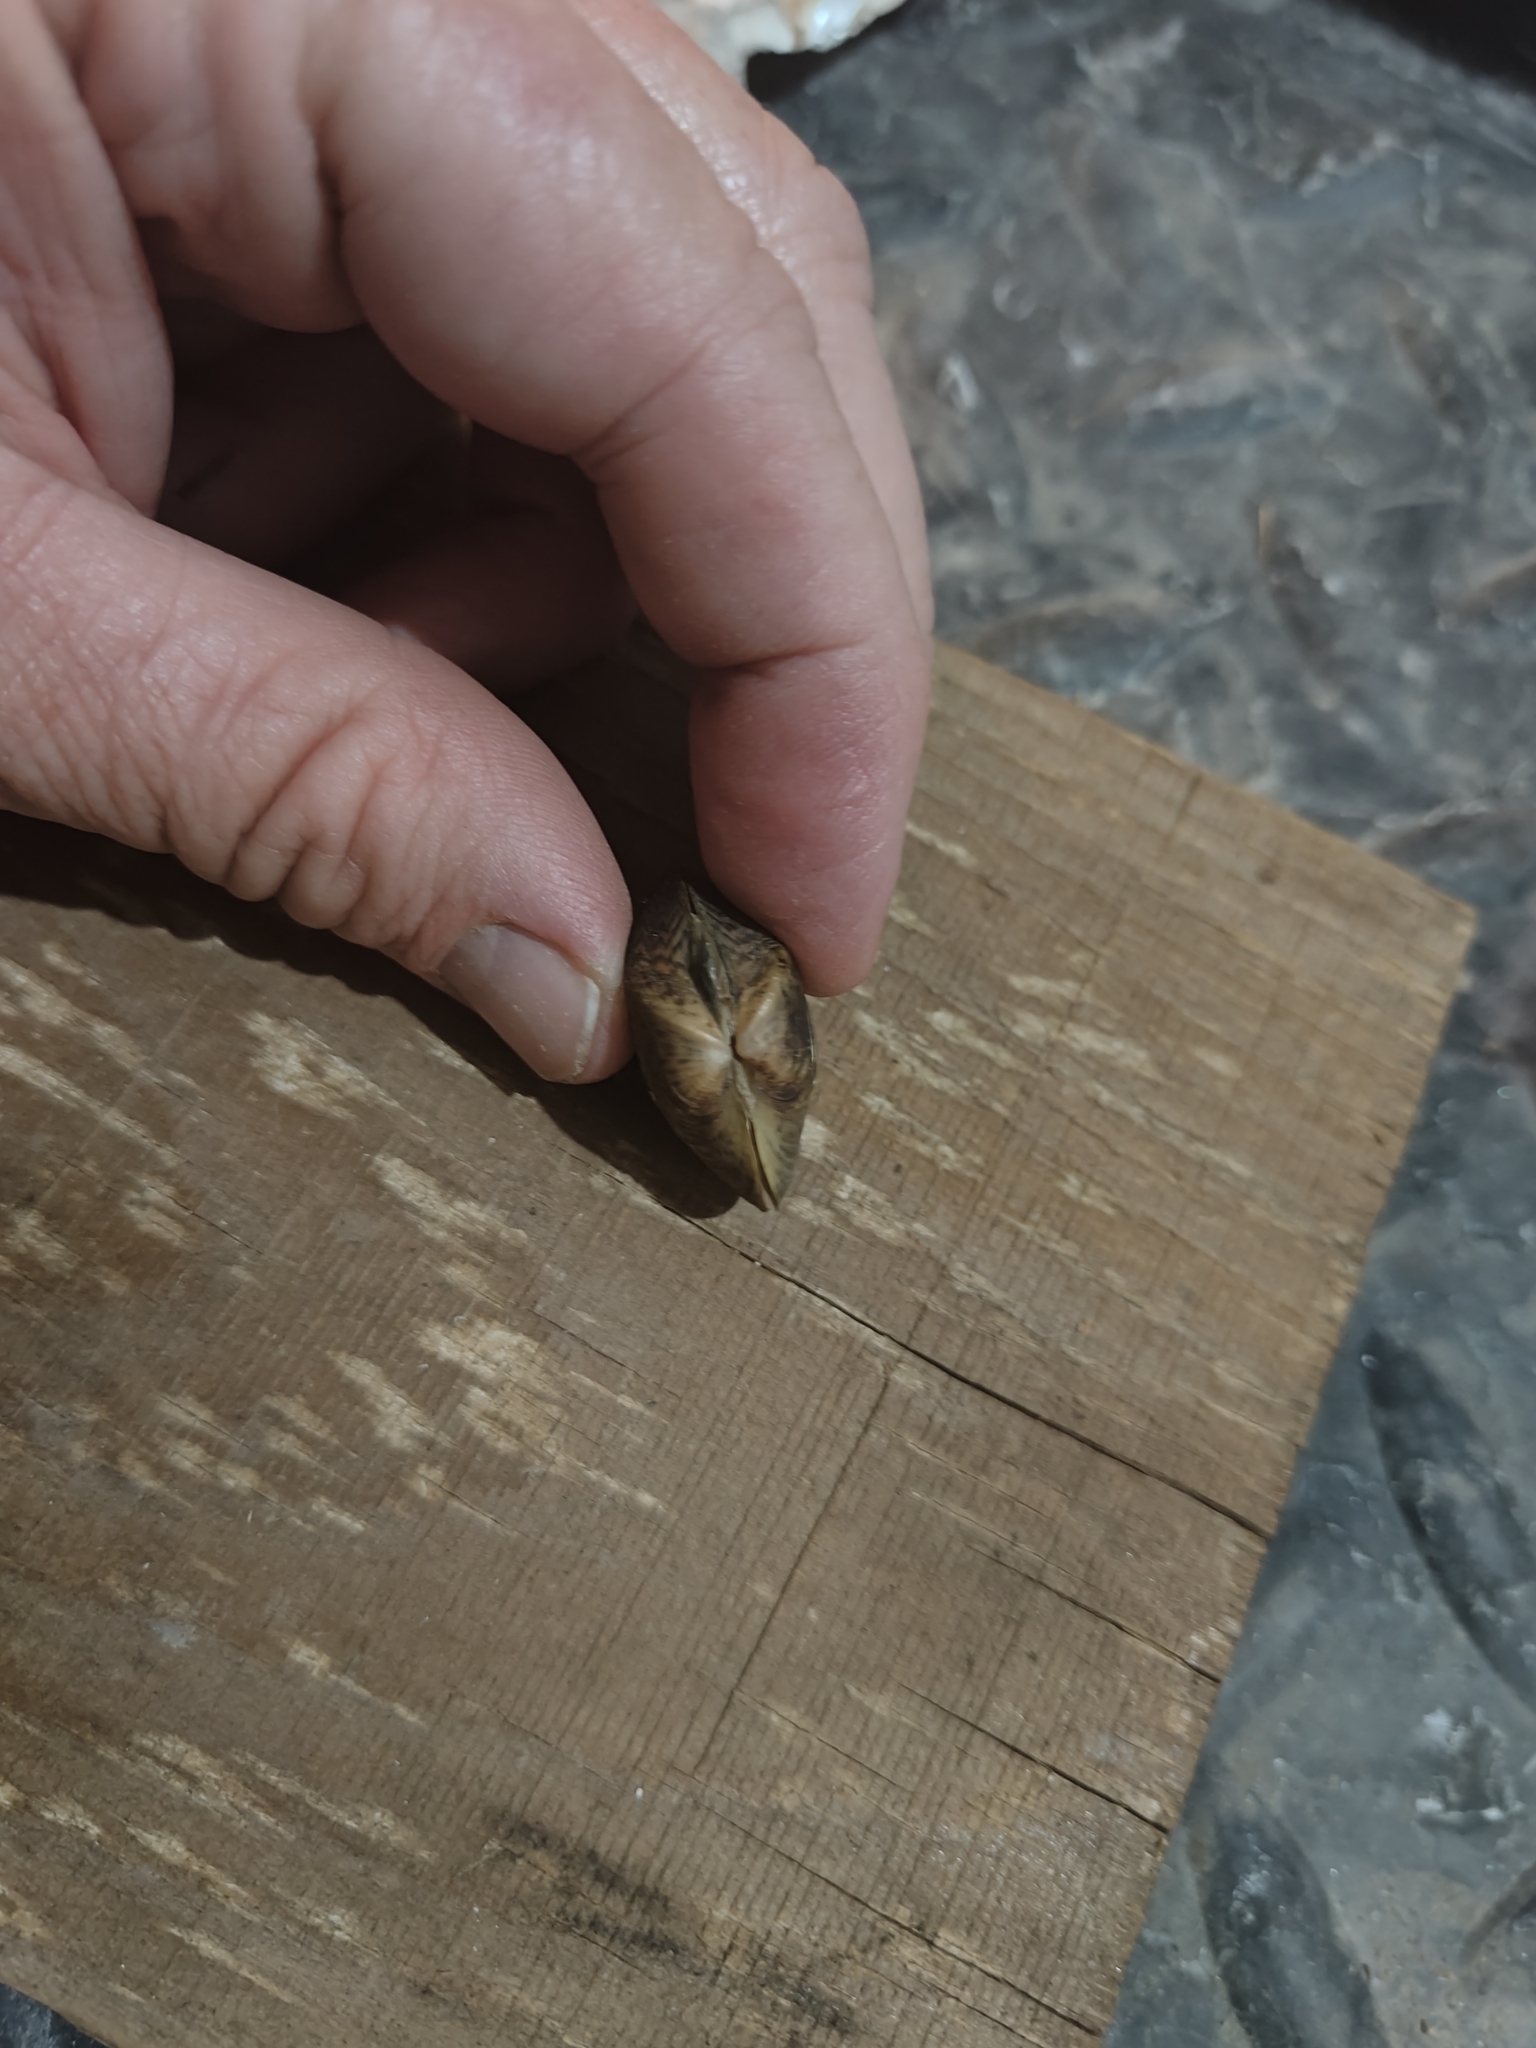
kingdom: Animalia
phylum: Mollusca
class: Bivalvia
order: Unionida
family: Unionidae
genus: Truncilla
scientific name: Truncilla truncata
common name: Deertoe
